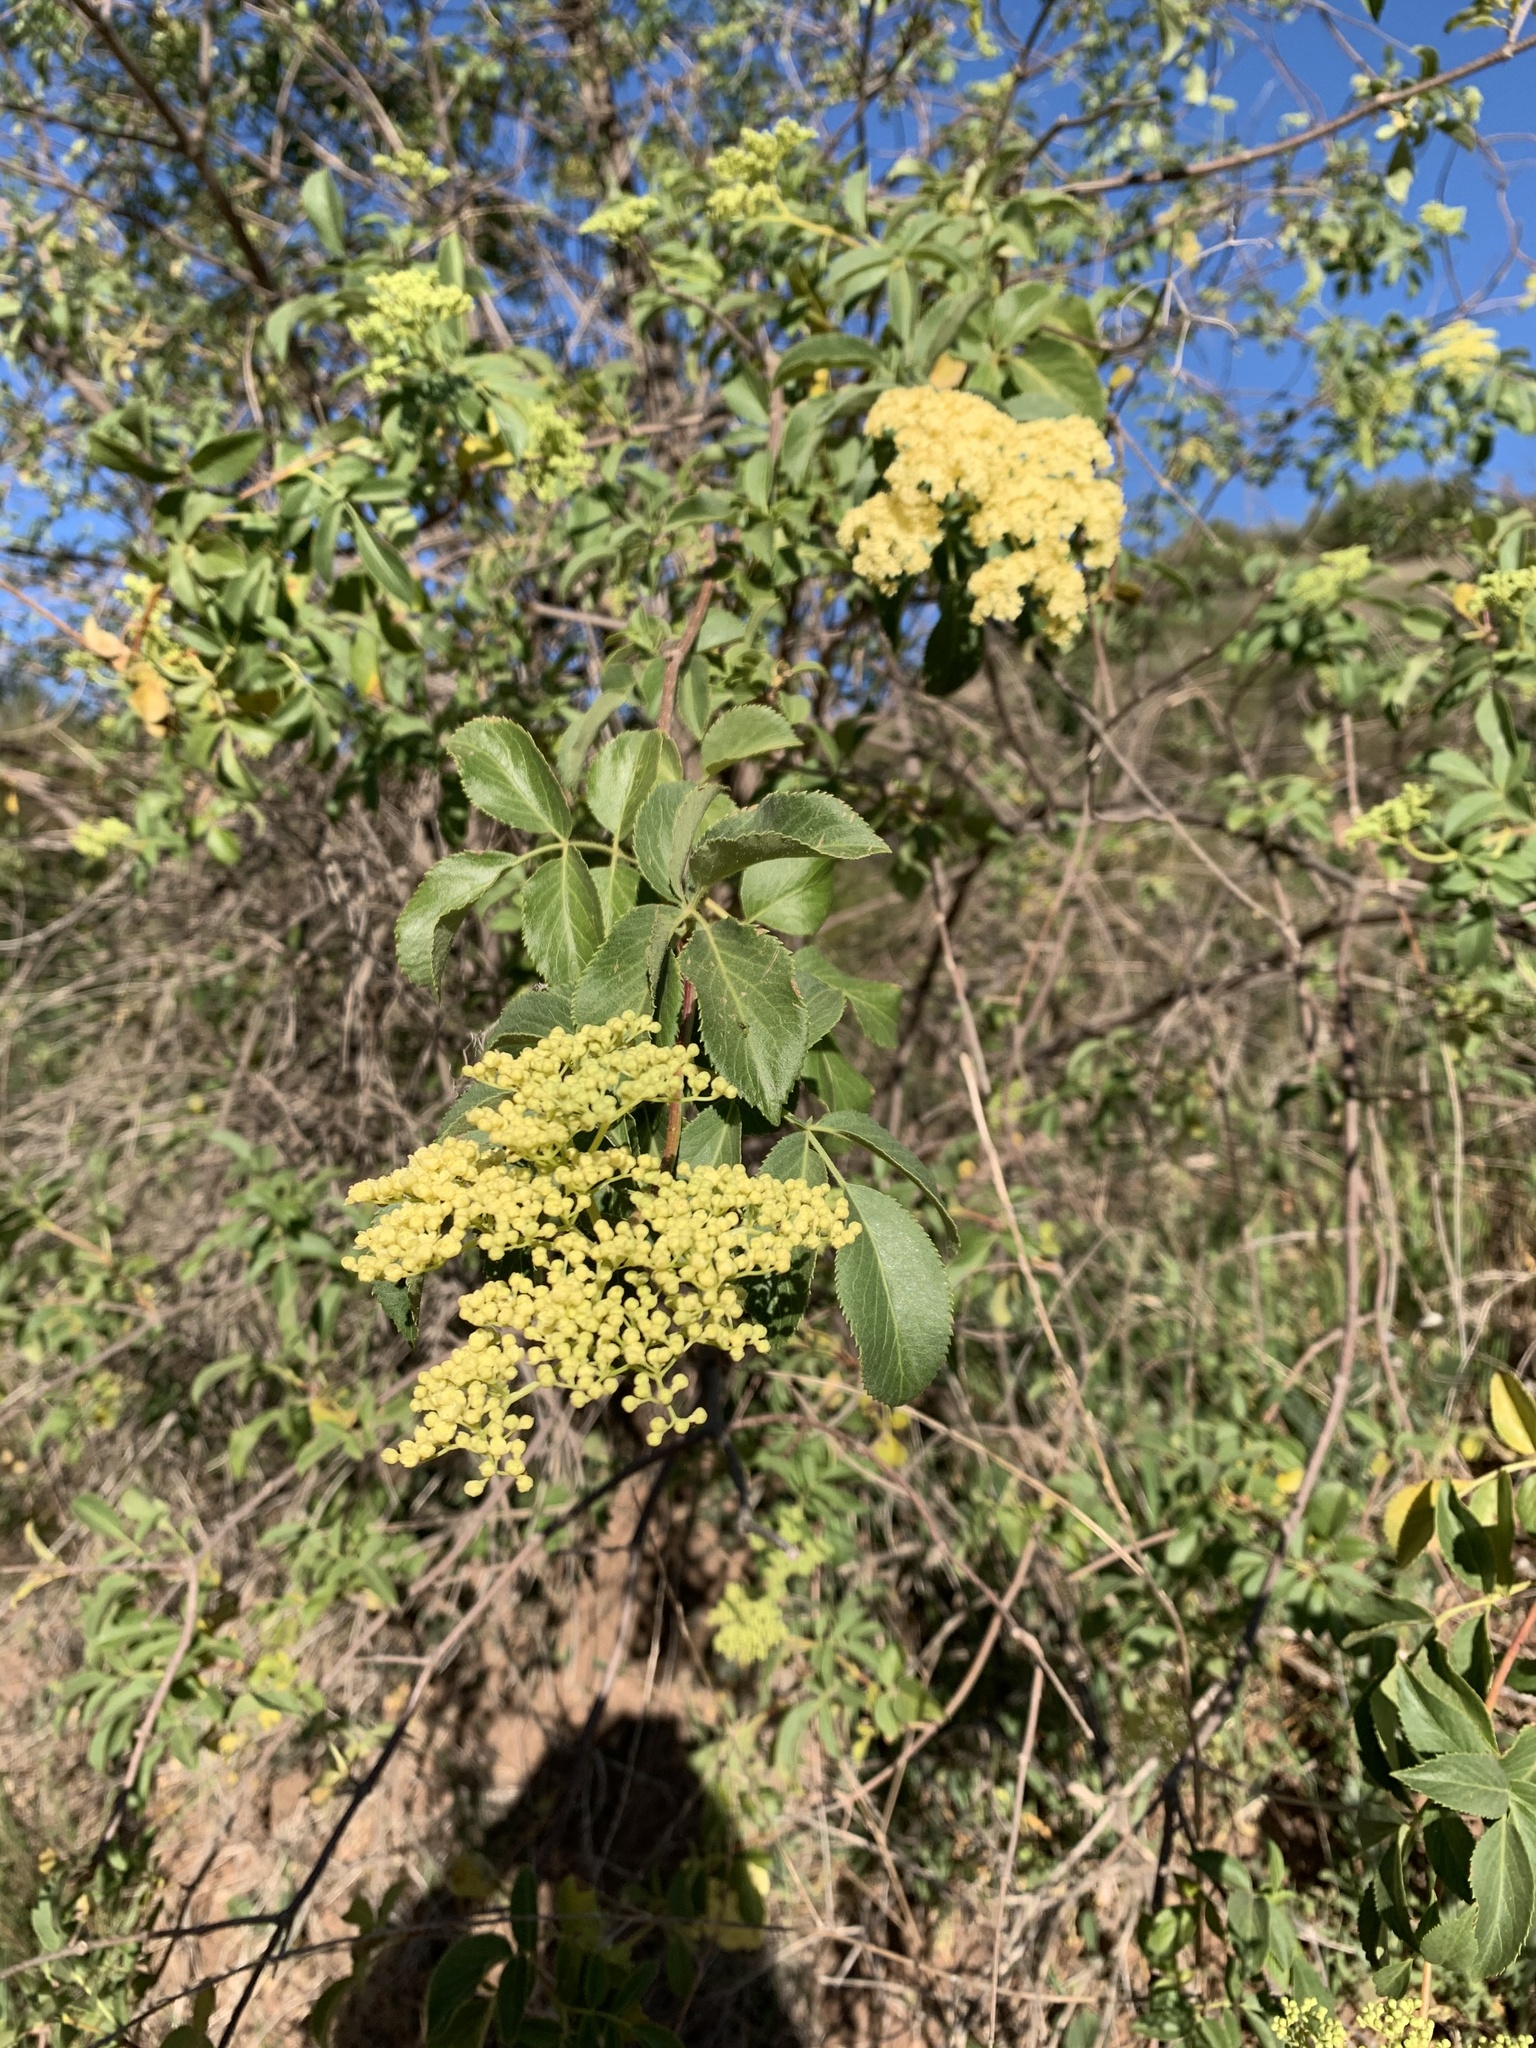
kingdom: Plantae
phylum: Tracheophyta
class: Magnoliopsida
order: Dipsacales
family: Viburnaceae
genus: Sambucus
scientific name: Sambucus cerulea
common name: Blue elder
